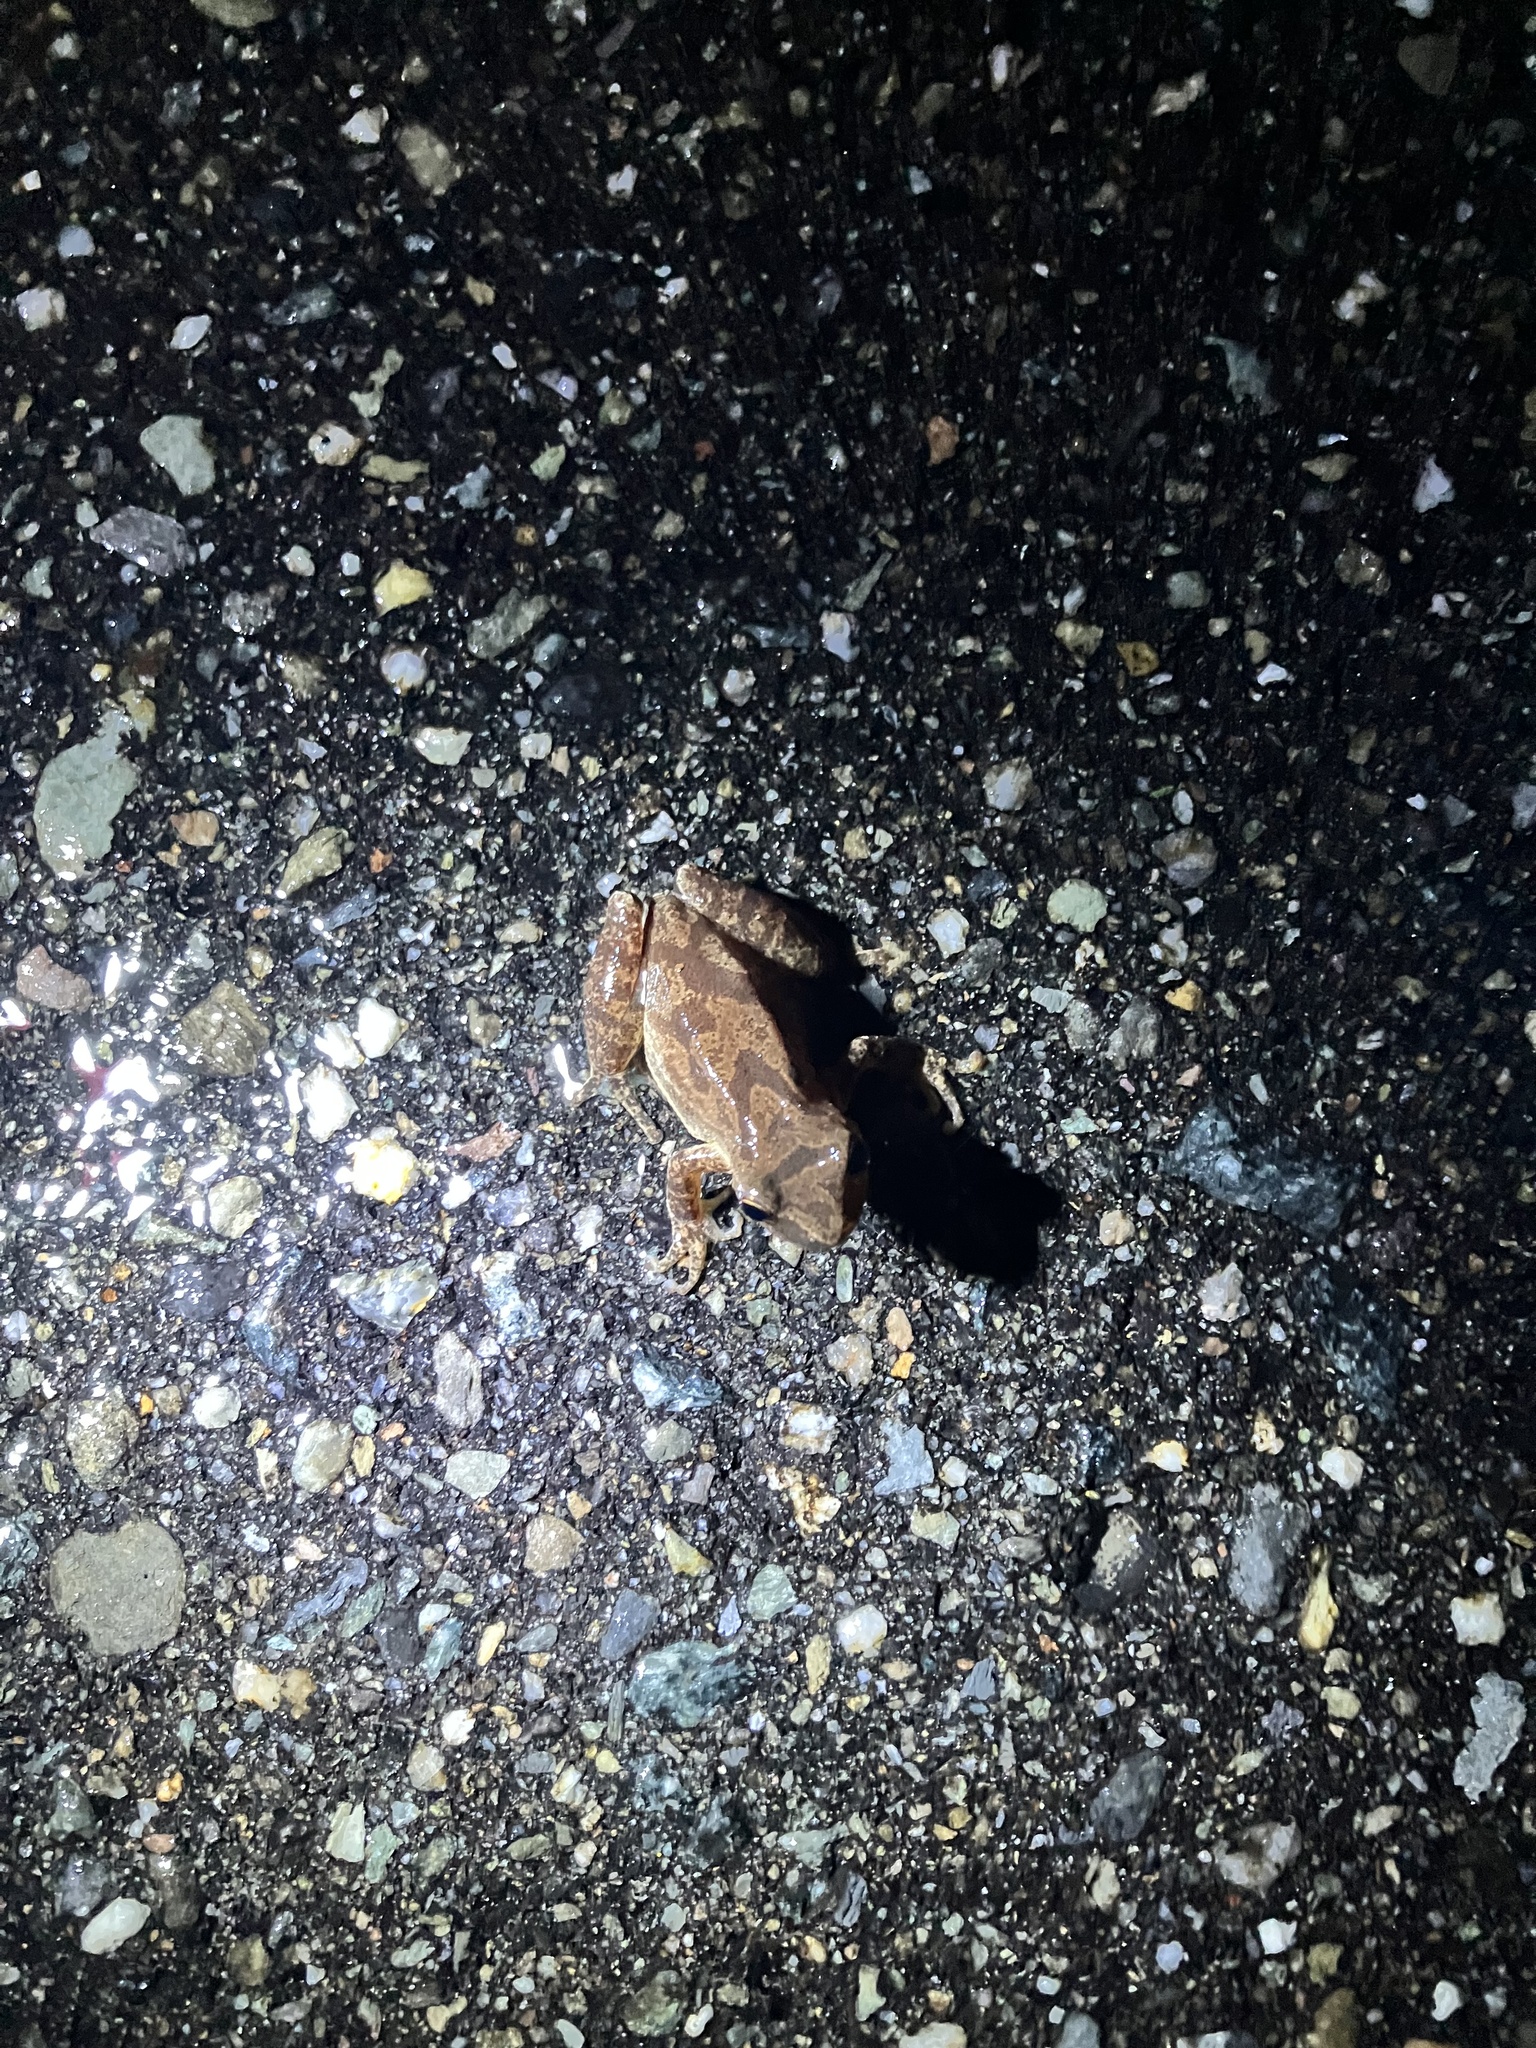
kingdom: Animalia
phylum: Chordata
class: Amphibia
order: Anura
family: Hylidae
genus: Pseudacris
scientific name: Pseudacris crucifer
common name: Spring peeper
